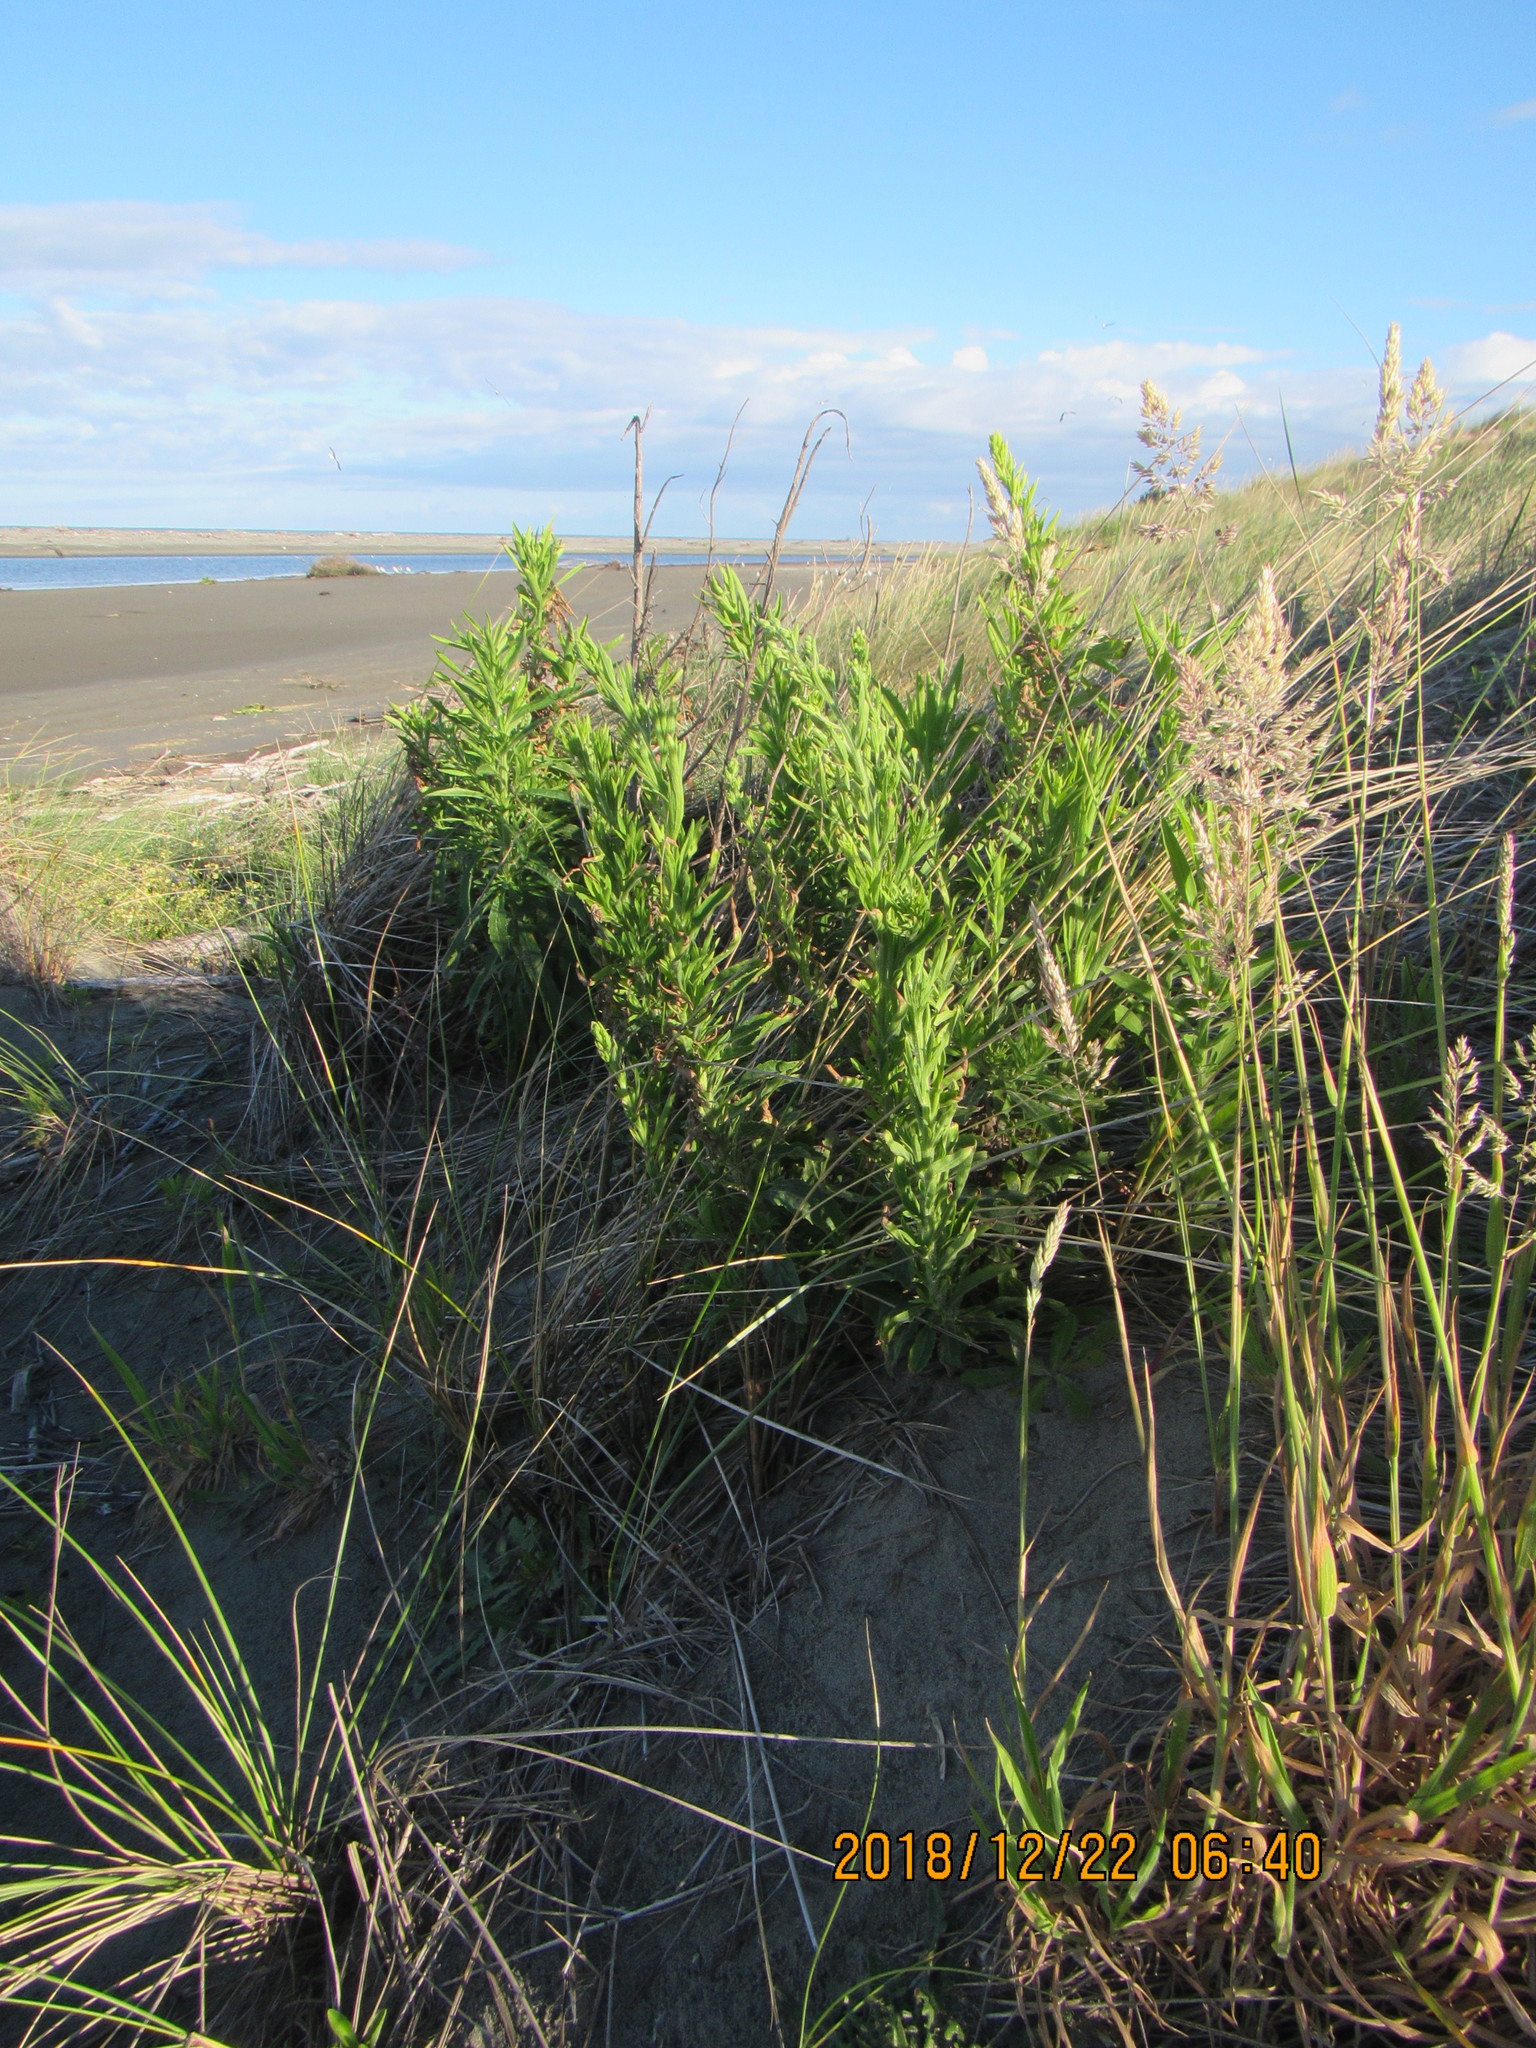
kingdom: Plantae
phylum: Tracheophyta
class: Magnoliopsida
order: Asterales
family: Asteraceae
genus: Erigeron
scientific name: Erigeron sumatrensis
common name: Daisy
